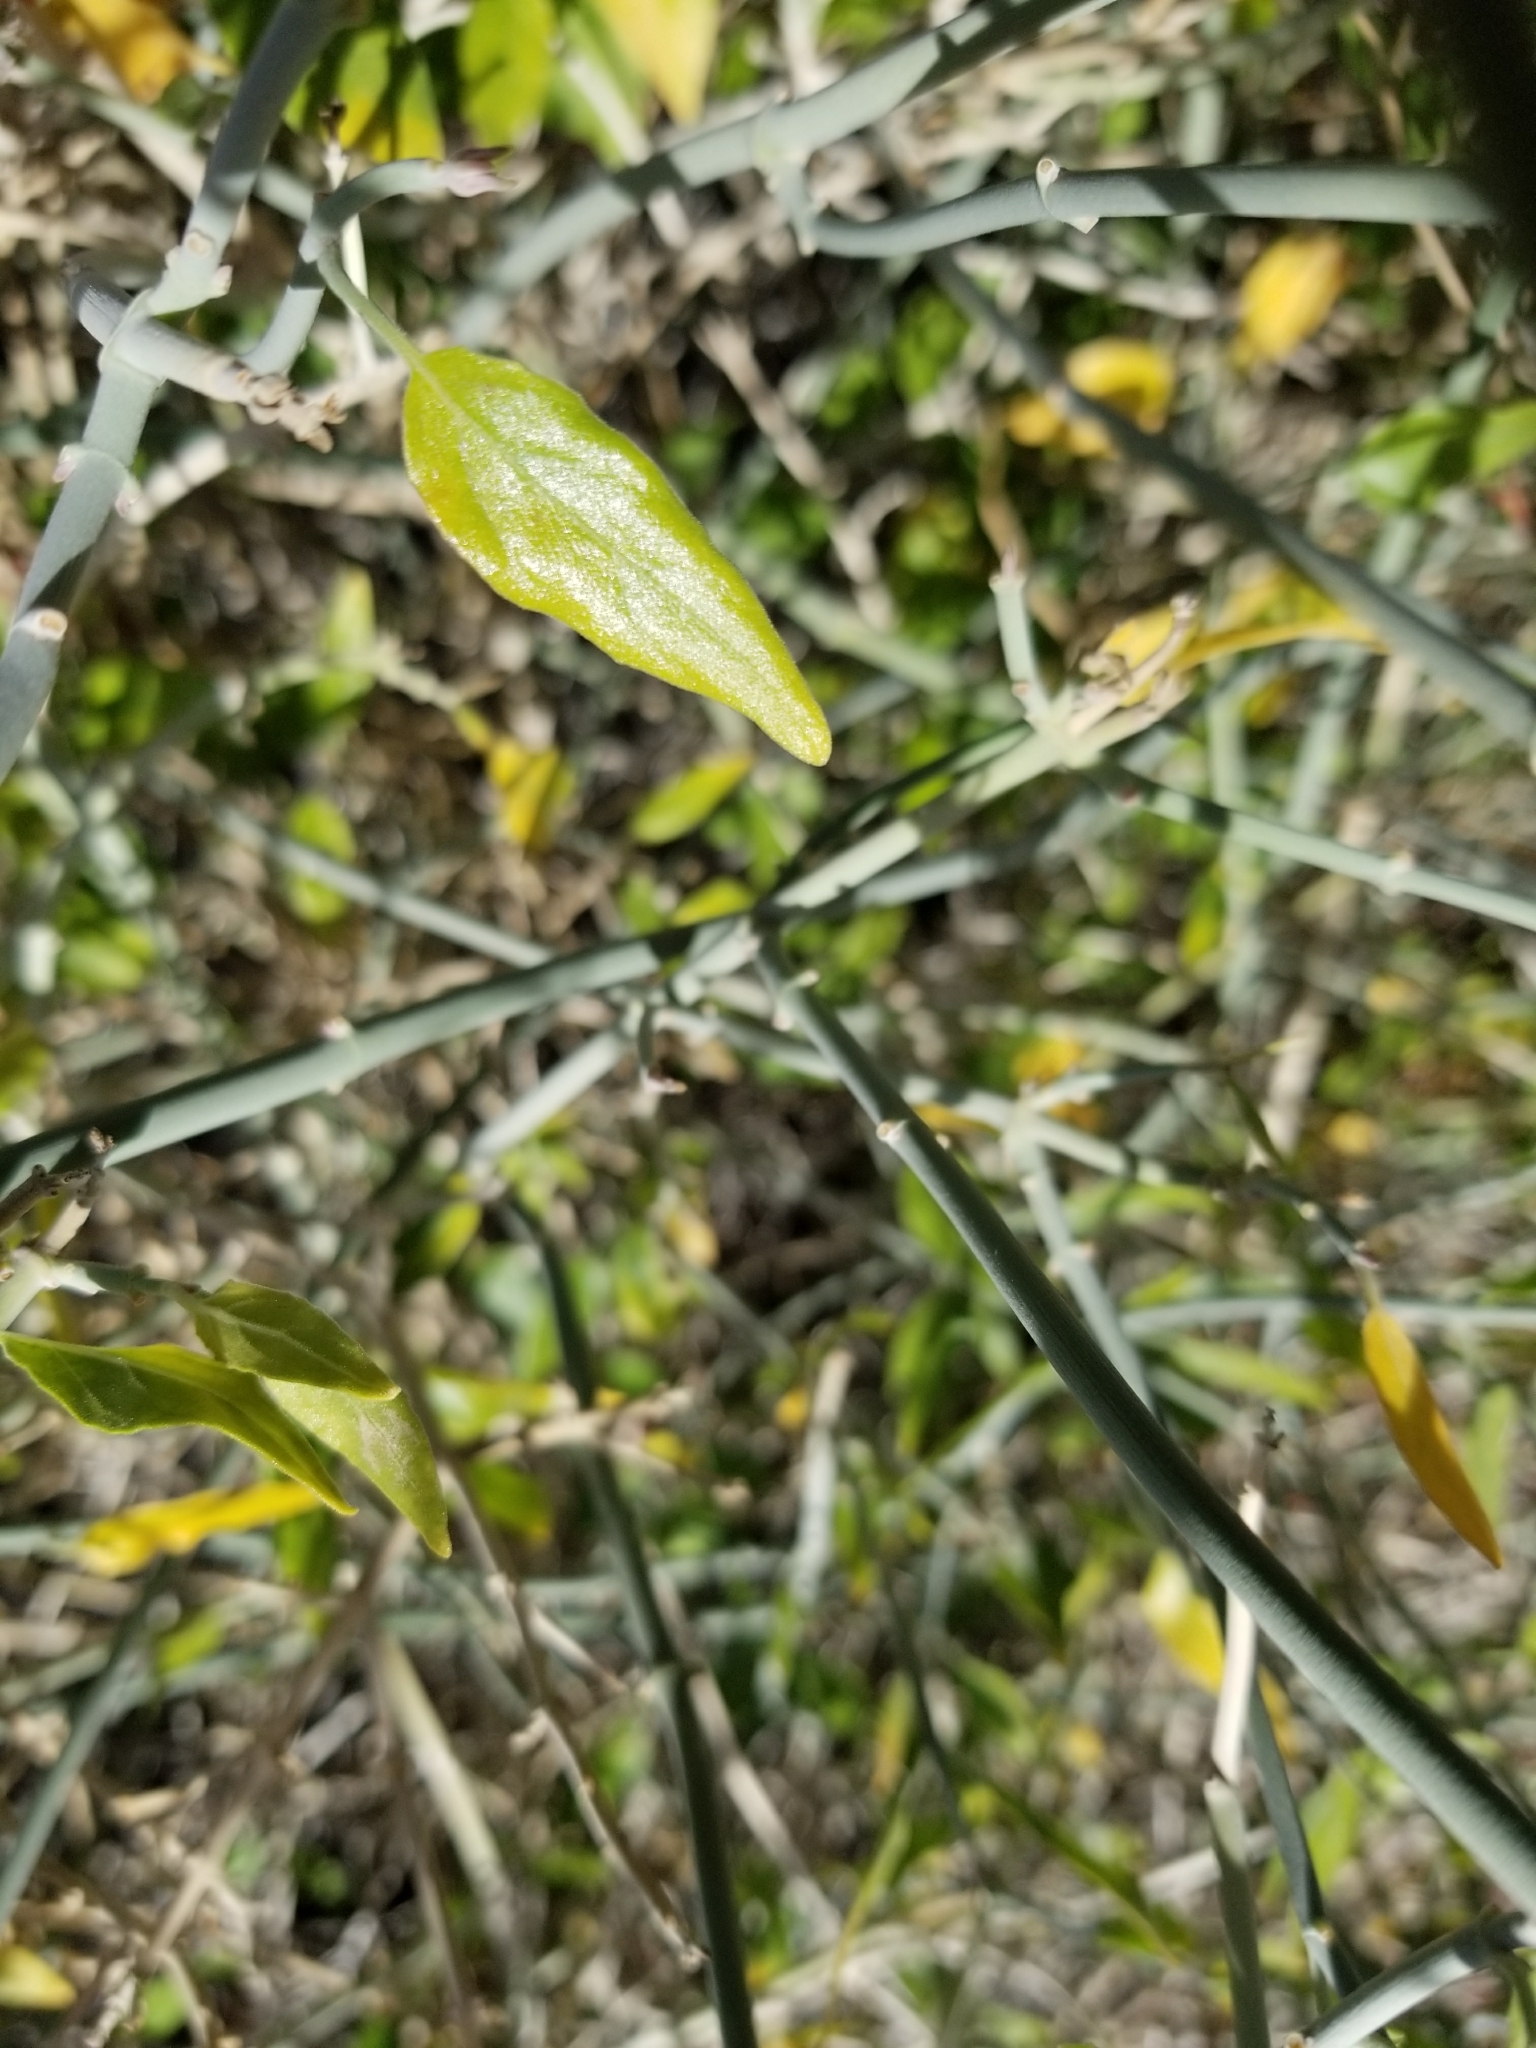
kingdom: Plantae
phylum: Tracheophyta
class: Magnoliopsida
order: Lamiales
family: Acanthaceae
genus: Justicia
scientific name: Justicia californica
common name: Chuparosa-honeysuckle
